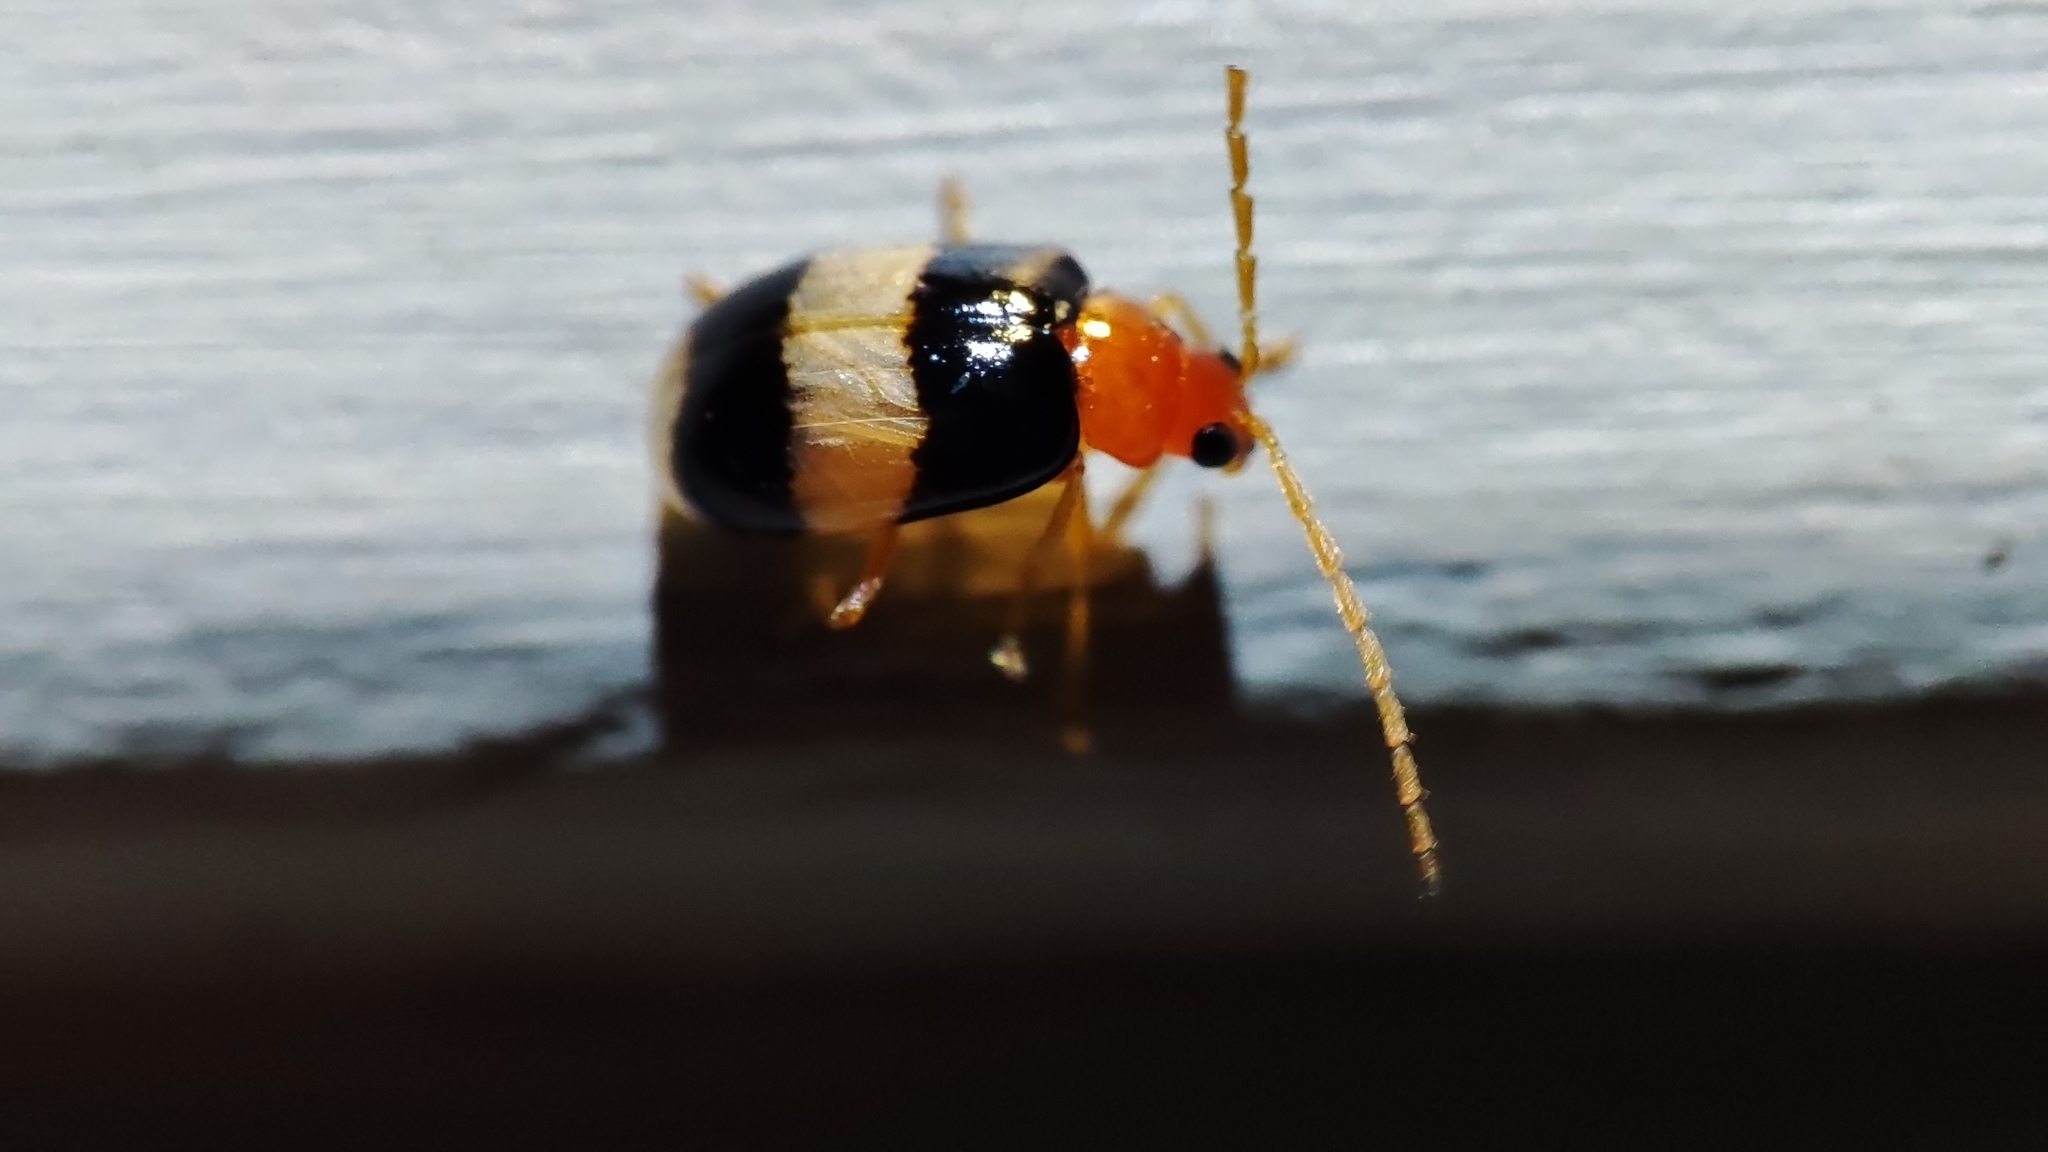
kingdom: Animalia
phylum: Arthropoda
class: Insecta
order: Coleoptera
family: Chrysomelidae
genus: Monolepta
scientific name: Monolepta
